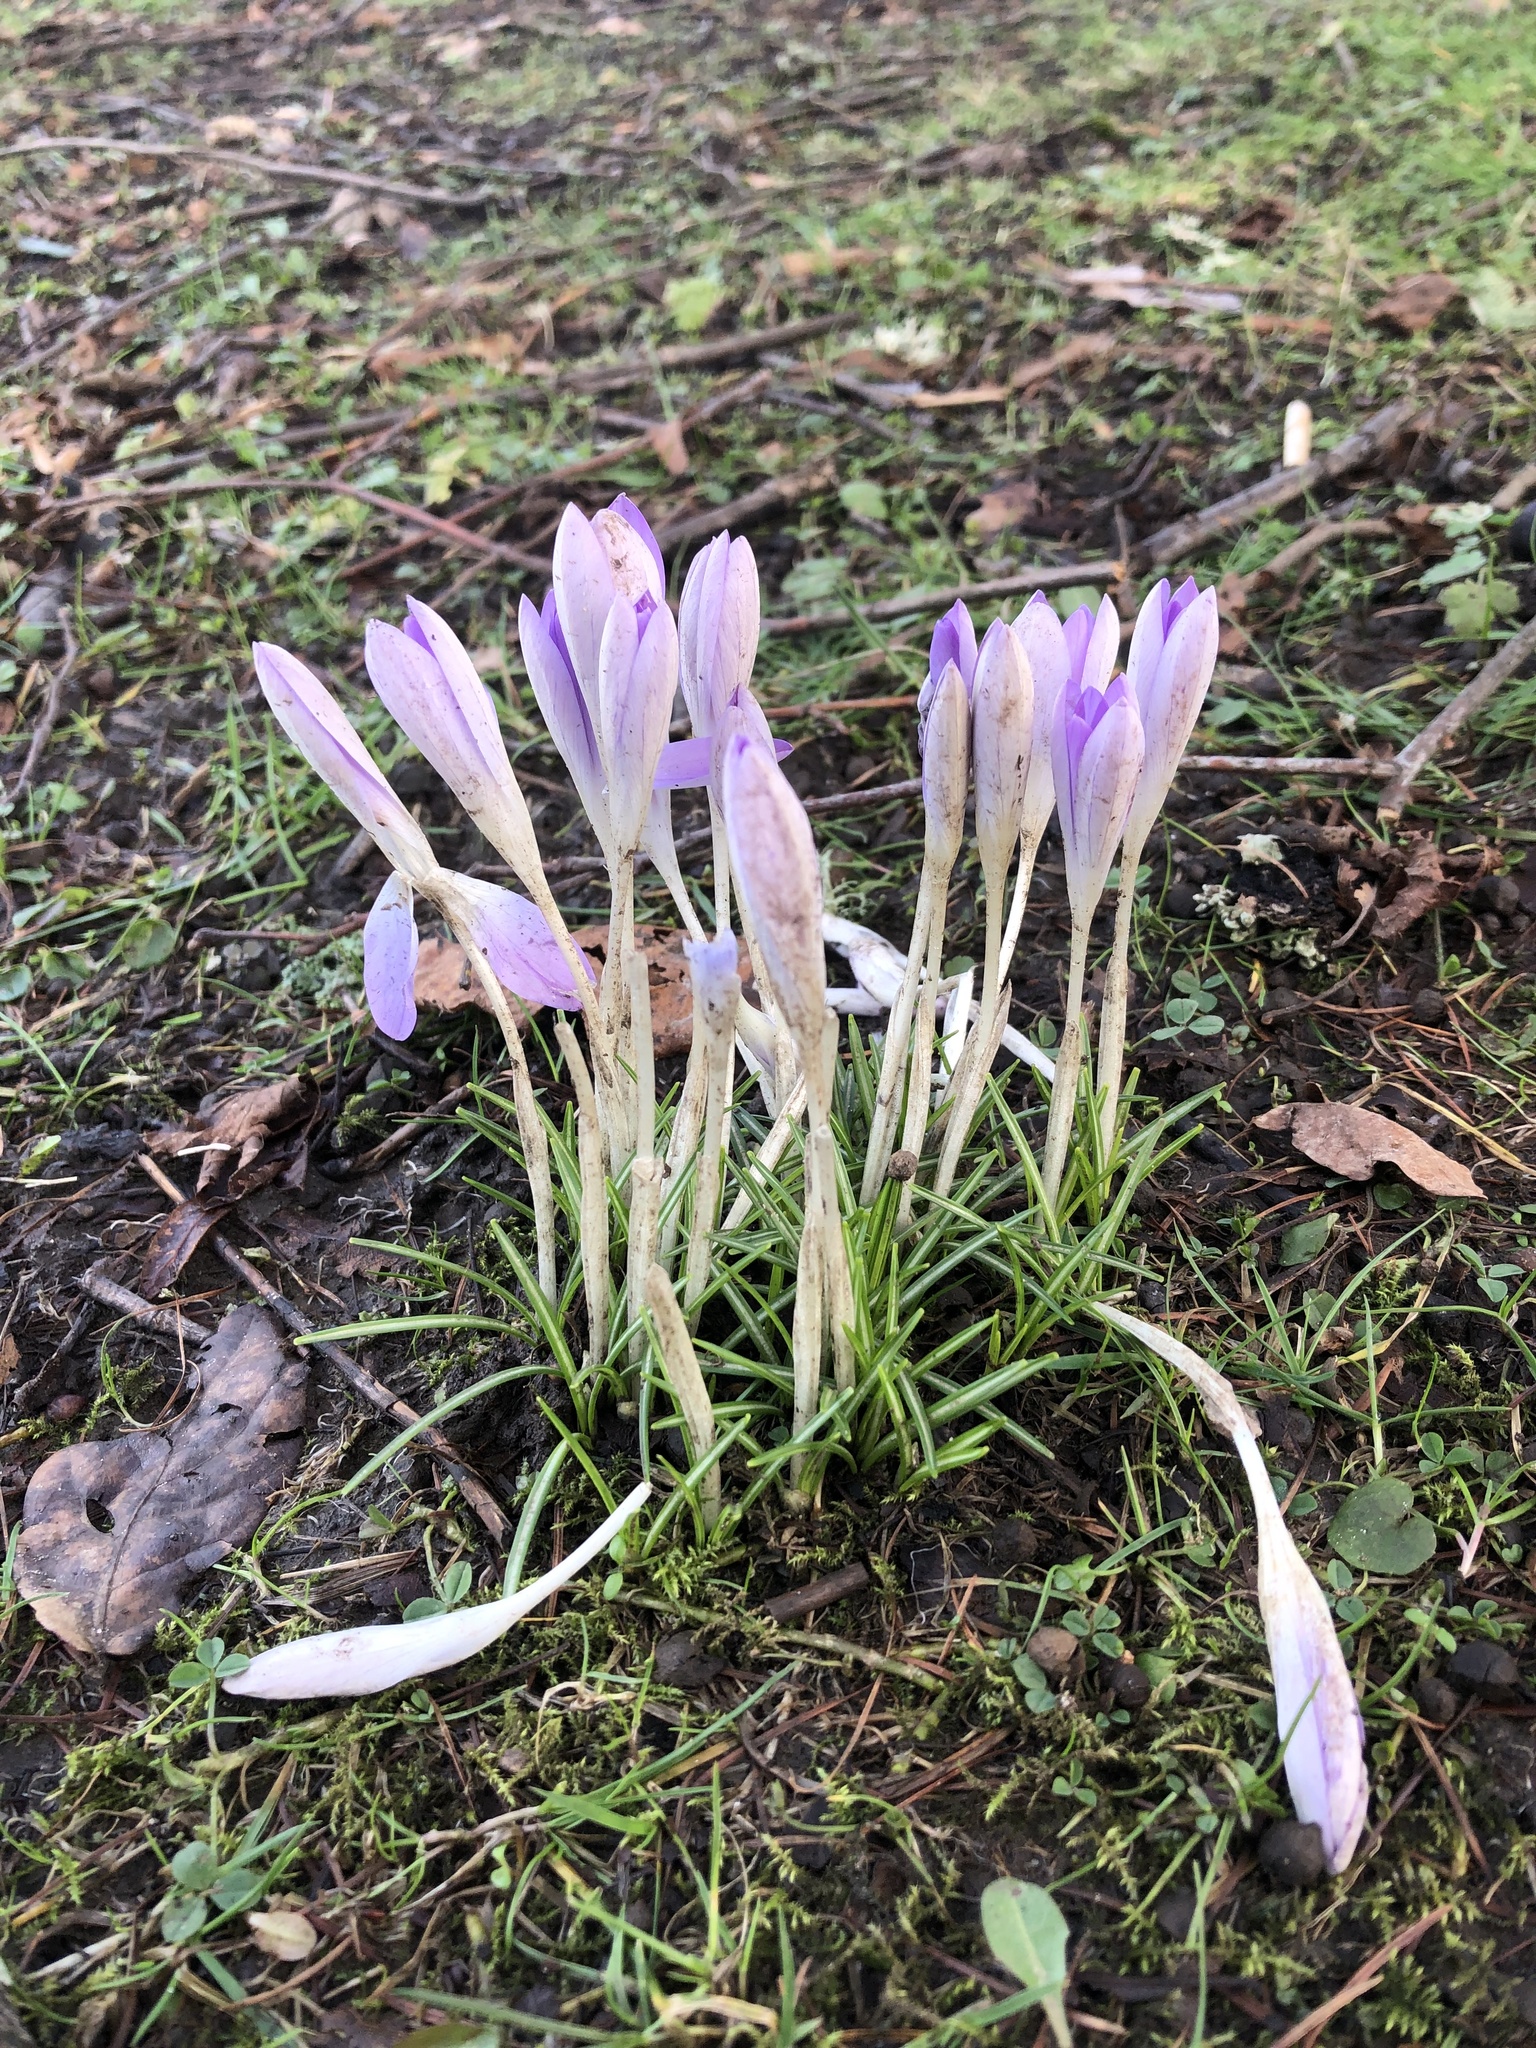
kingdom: Plantae
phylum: Tracheophyta
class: Liliopsida
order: Asparagales
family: Iridaceae
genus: Crocus
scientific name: Crocus tommasinianus
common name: Early crocus
